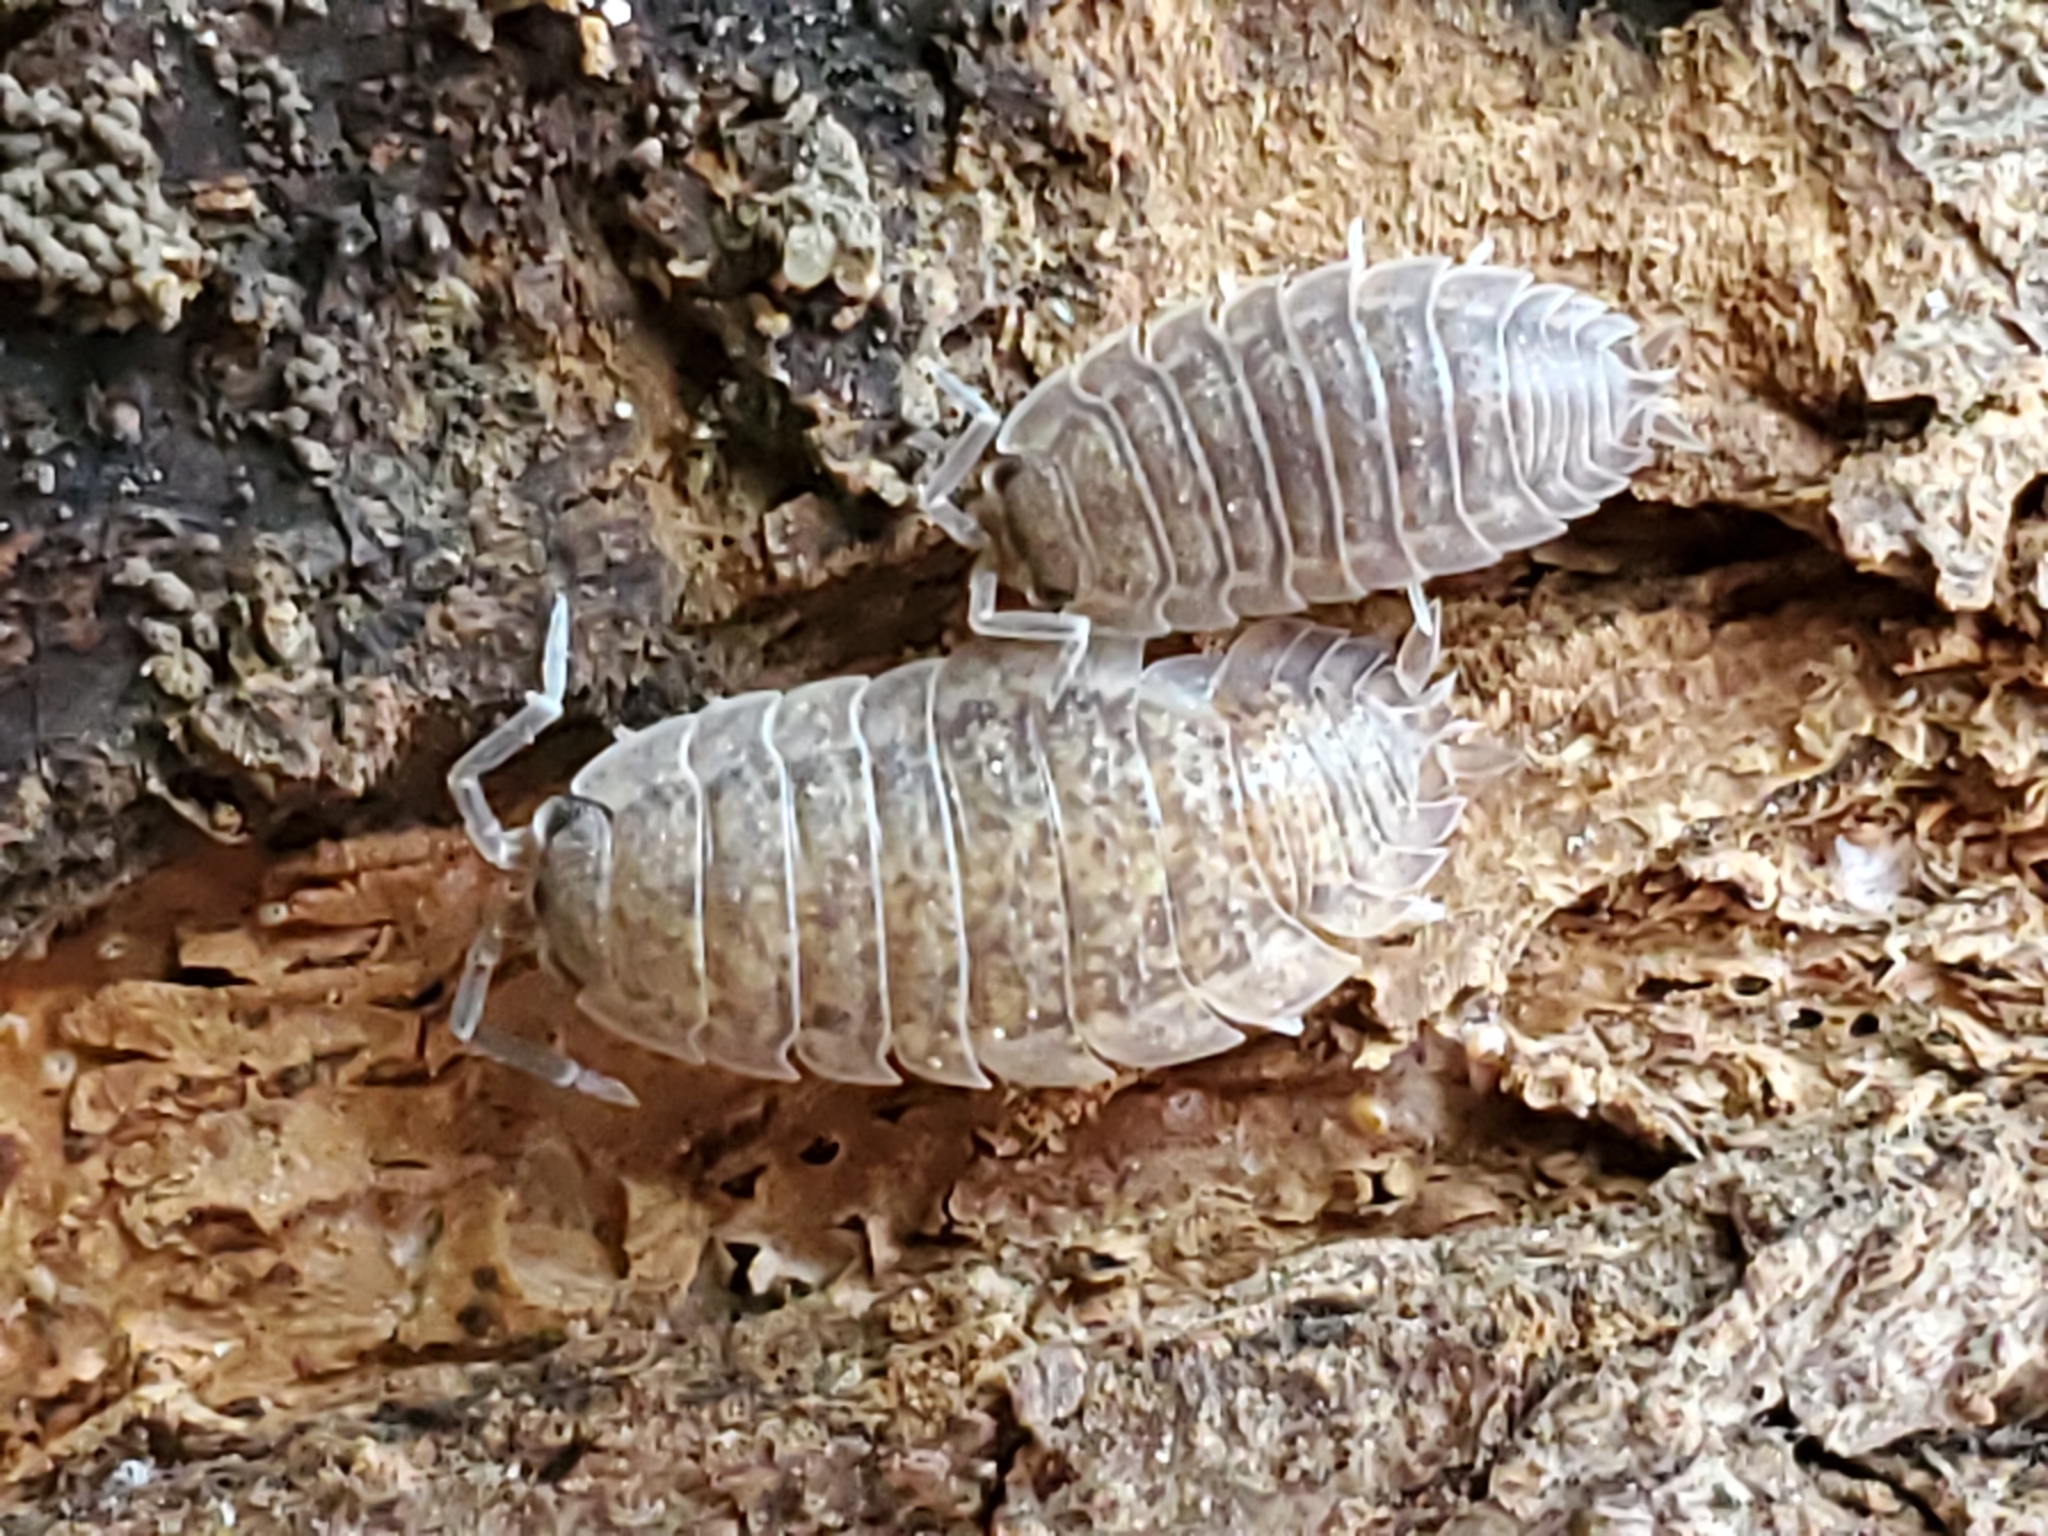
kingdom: Animalia
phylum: Arthropoda
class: Malacostraca
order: Isopoda
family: Trachelipodidae
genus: Trachelipus
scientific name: Trachelipus rathkii
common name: Isopod
